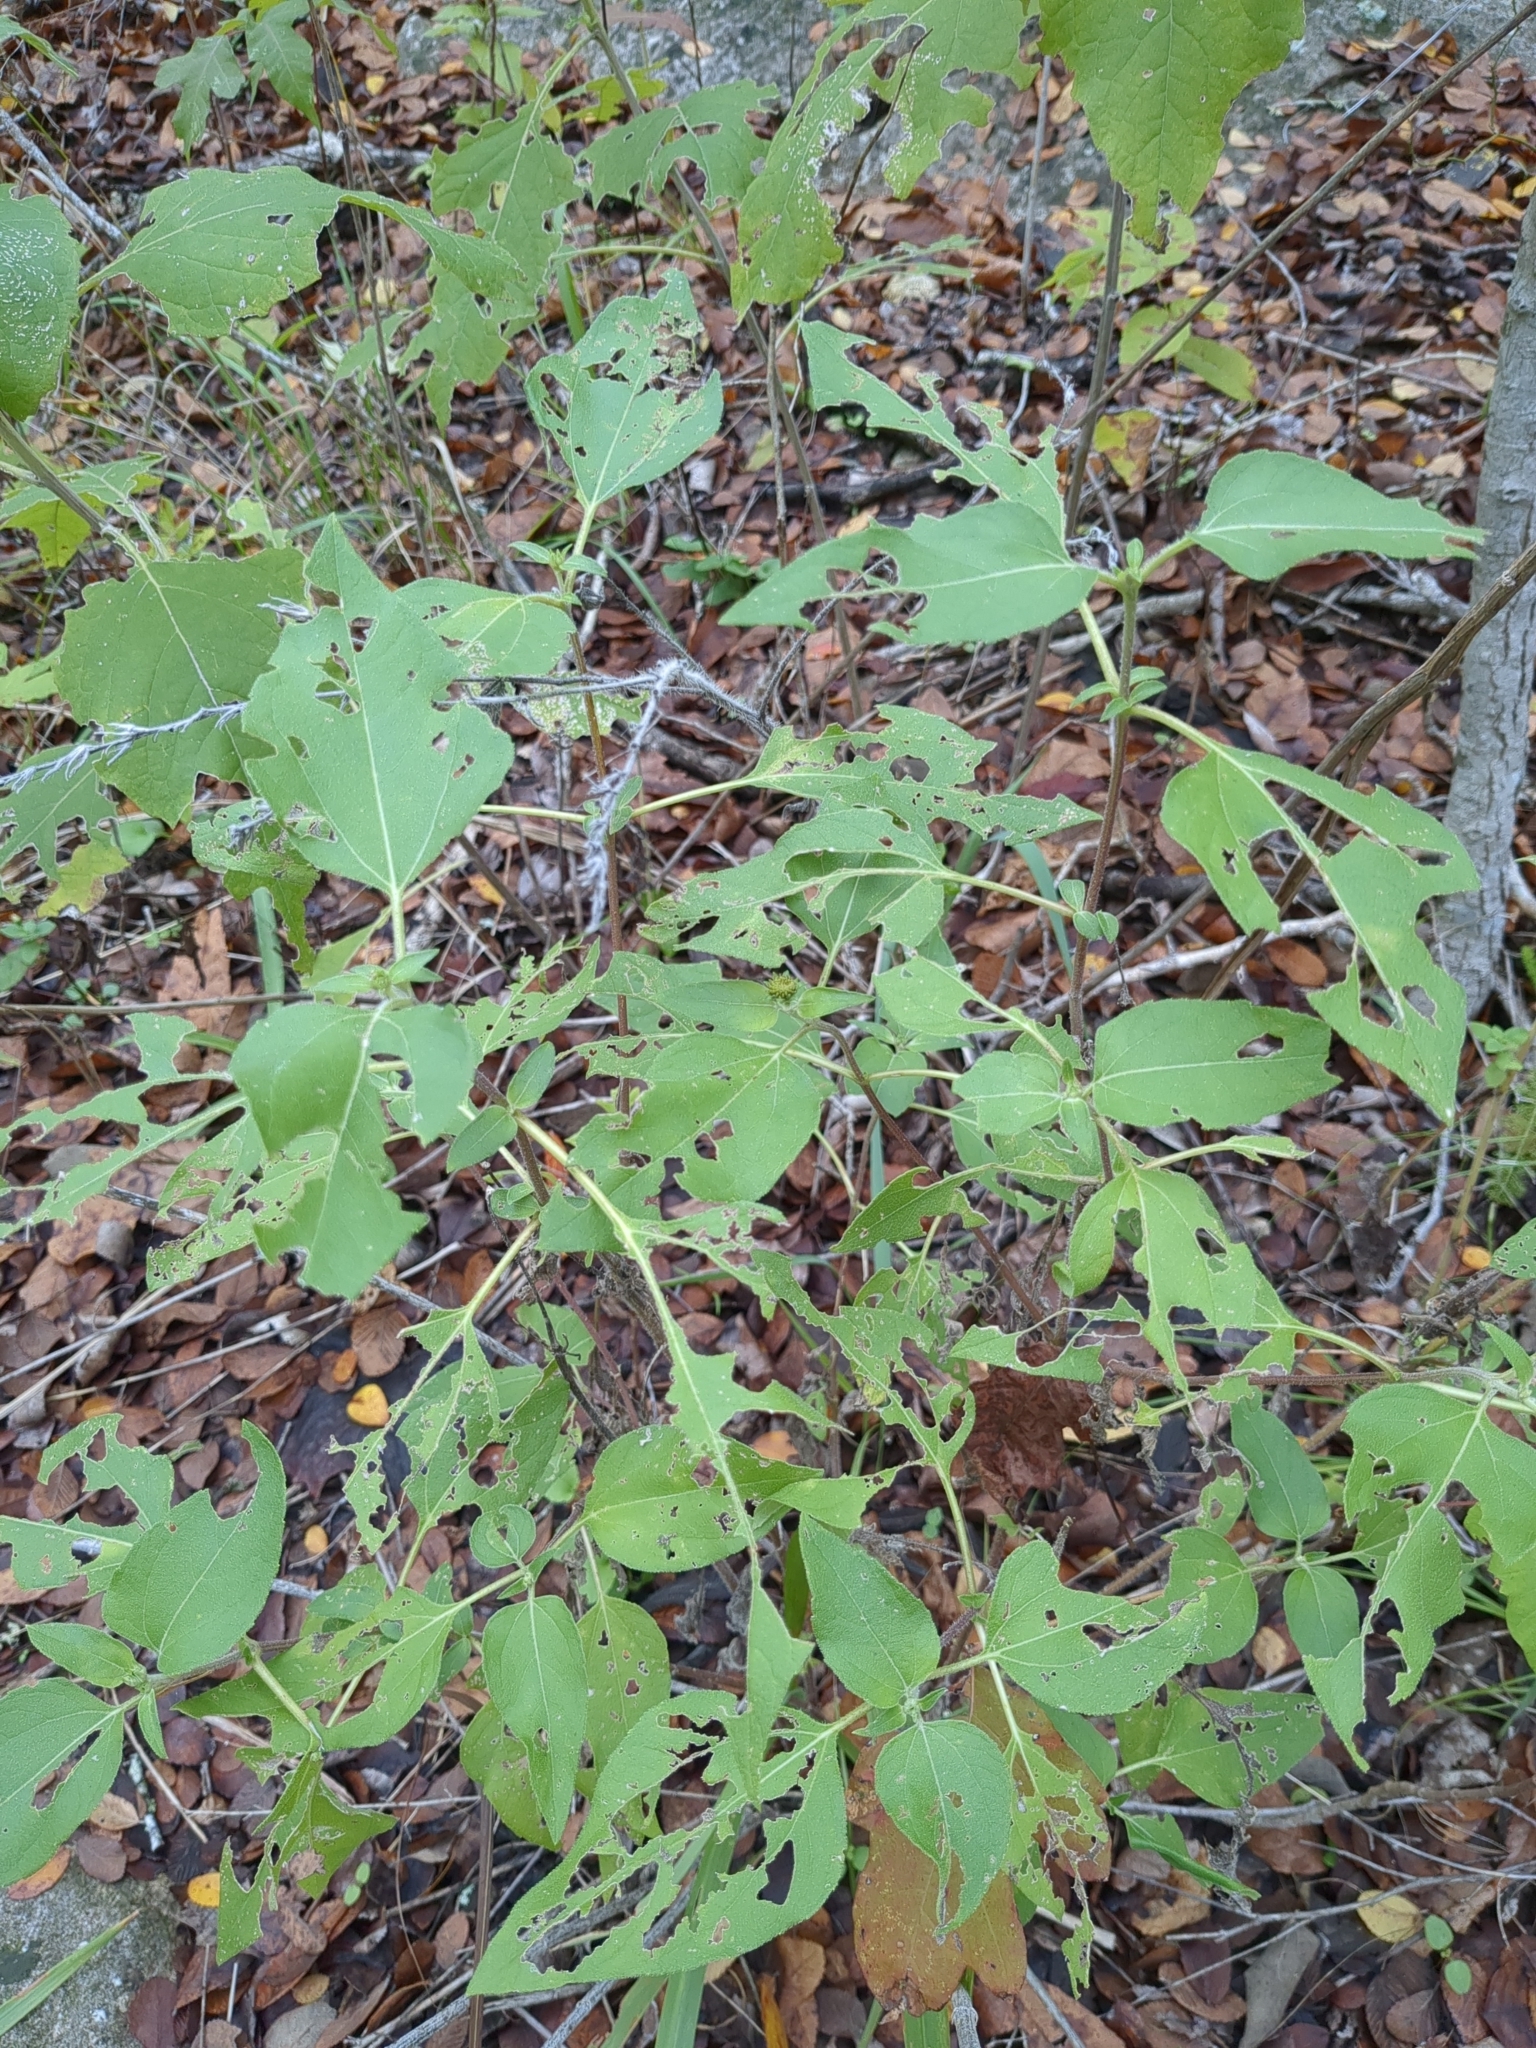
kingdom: Plantae
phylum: Tracheophyta
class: Magnoliopsida
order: Asterales
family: Asteraceae
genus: Viguiera
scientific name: Viguiera dentata
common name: Toothleaf
